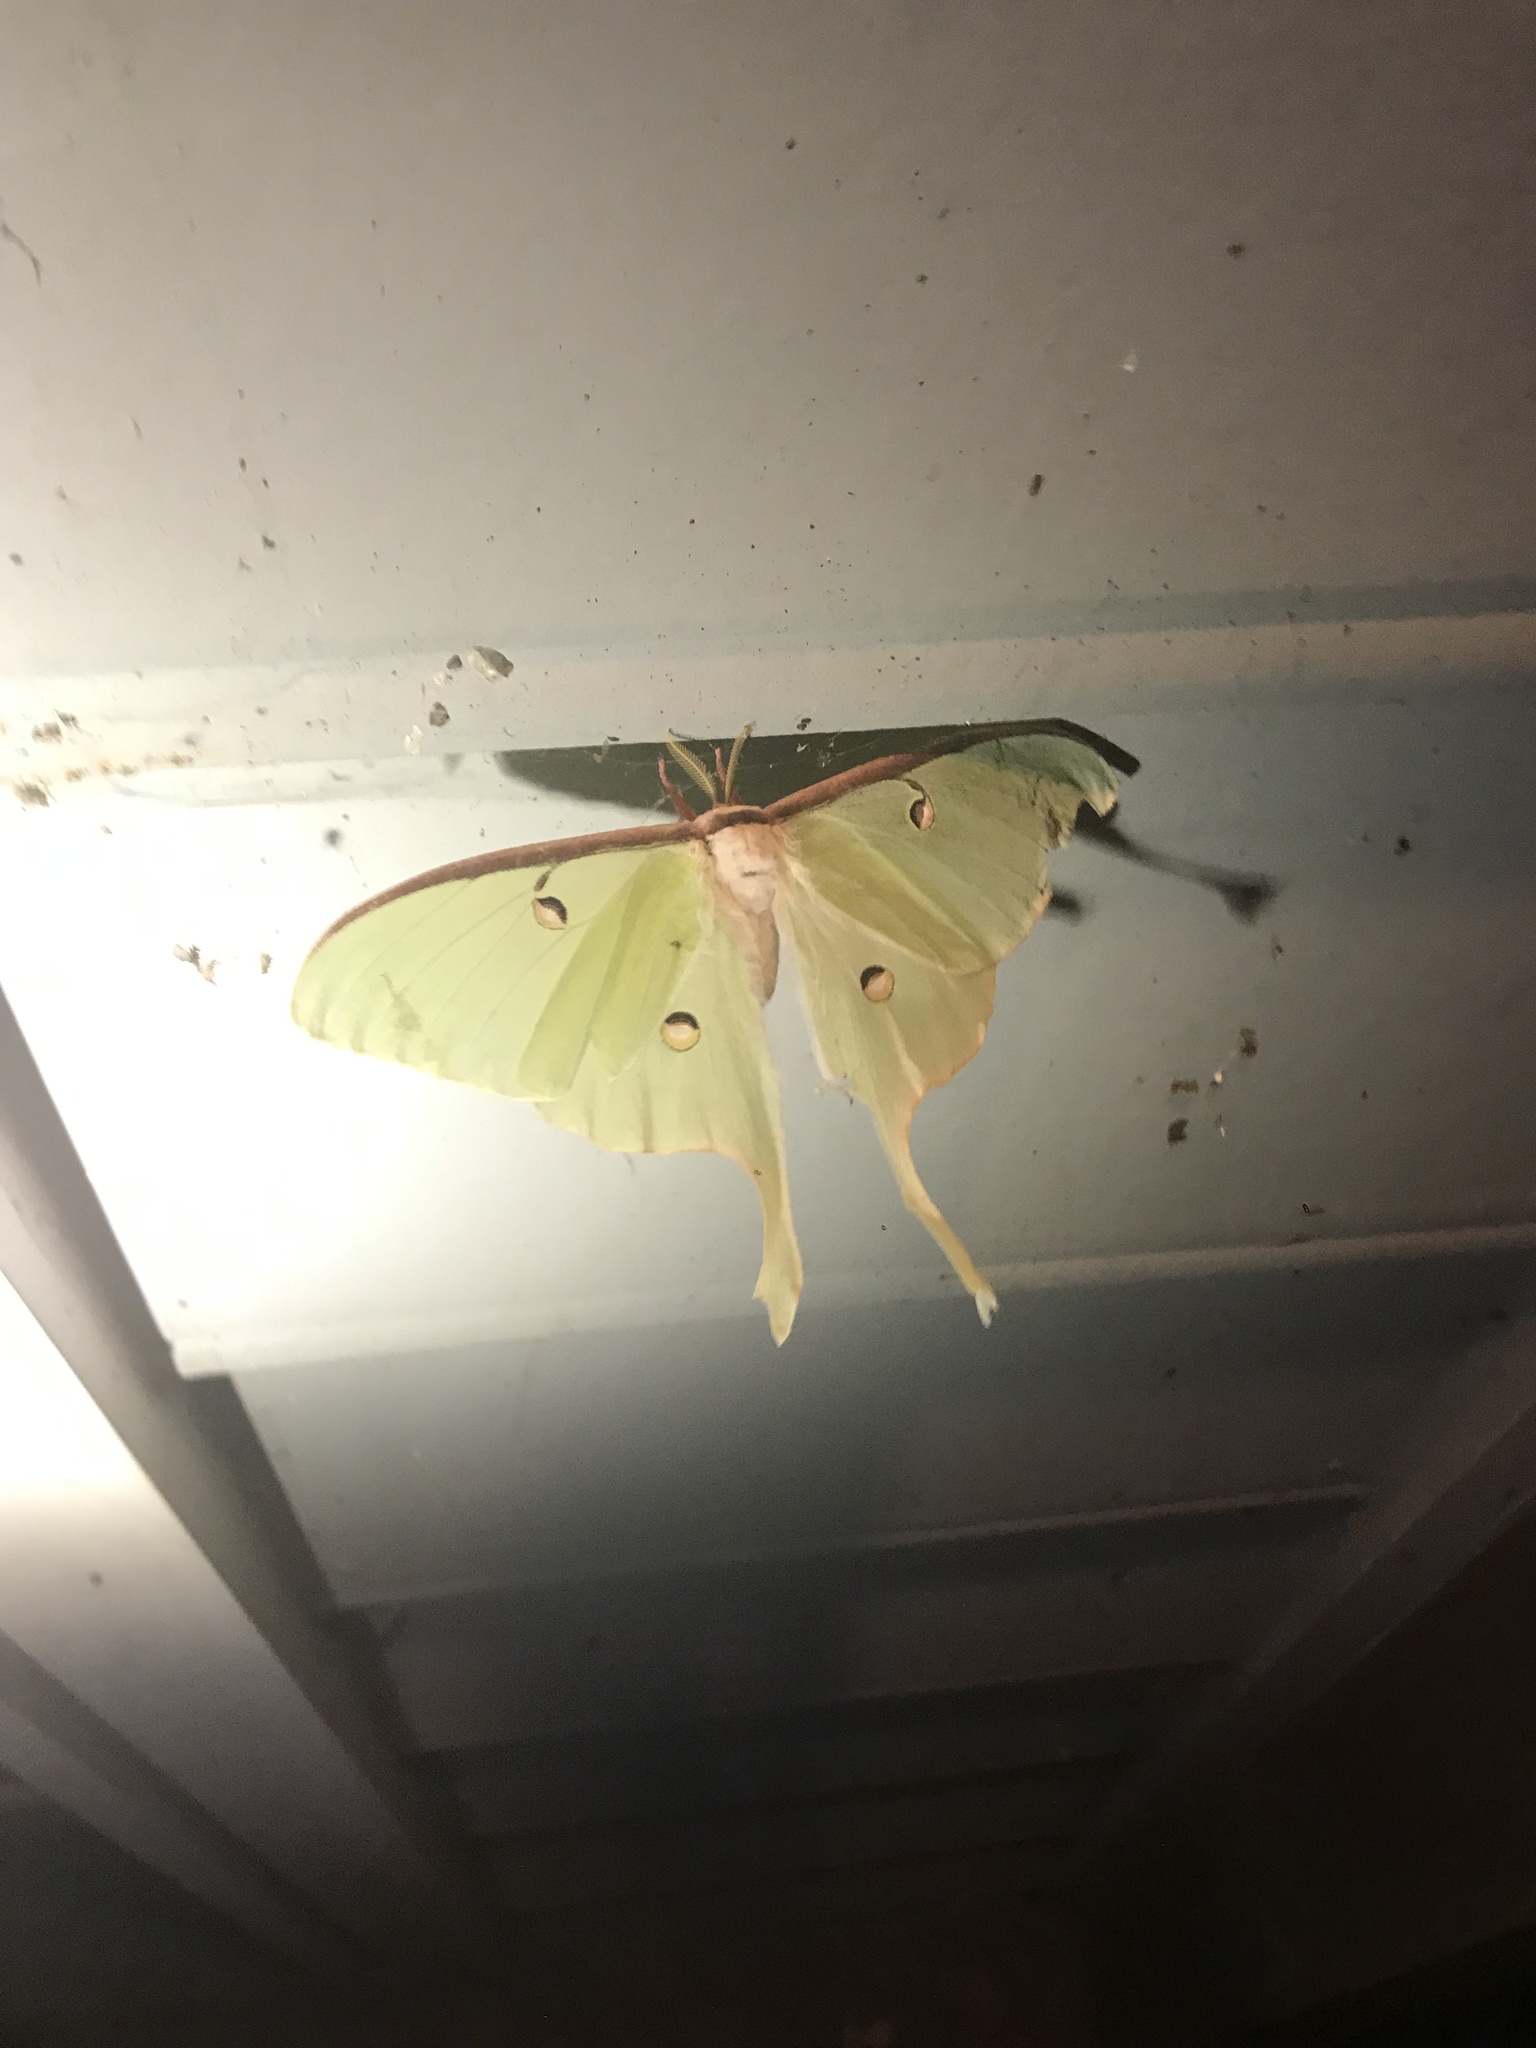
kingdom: Animalia
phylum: Arthropoda
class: Insecta
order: Lepidoptera
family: Saturniidae
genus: Actias
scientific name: Actias luna
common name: Luna moth
